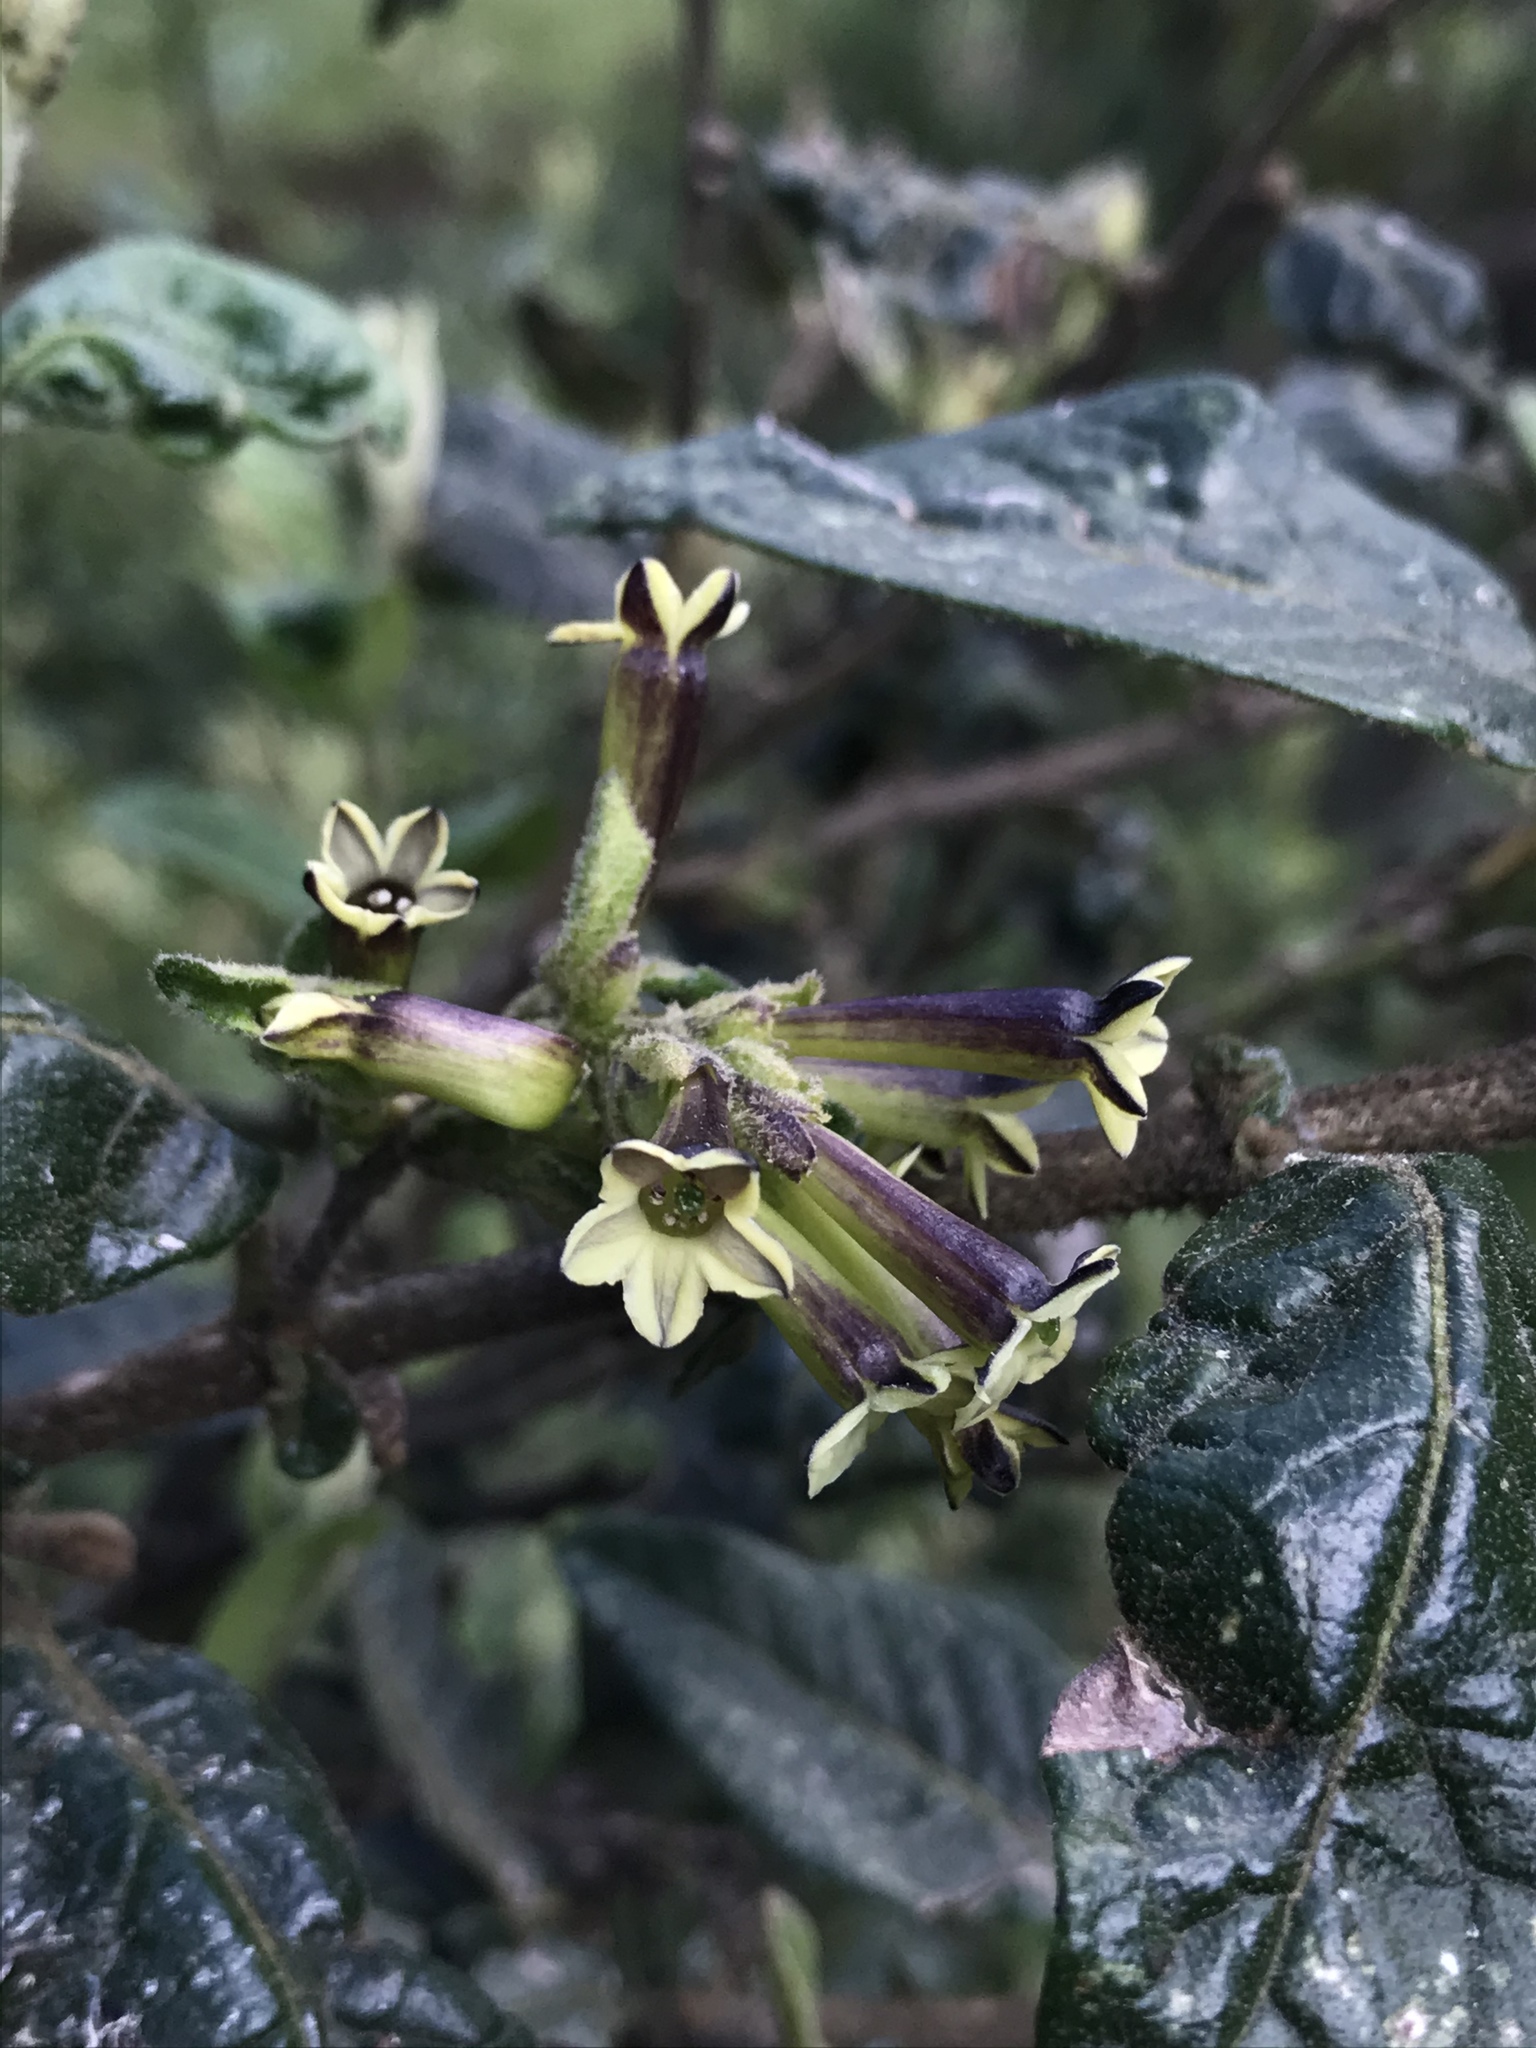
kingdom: Plantae
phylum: Tracheophyta
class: Magnoliopsida
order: Solanales
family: Solanaceae
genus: Cestrum
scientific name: Cestrum tomentosum
